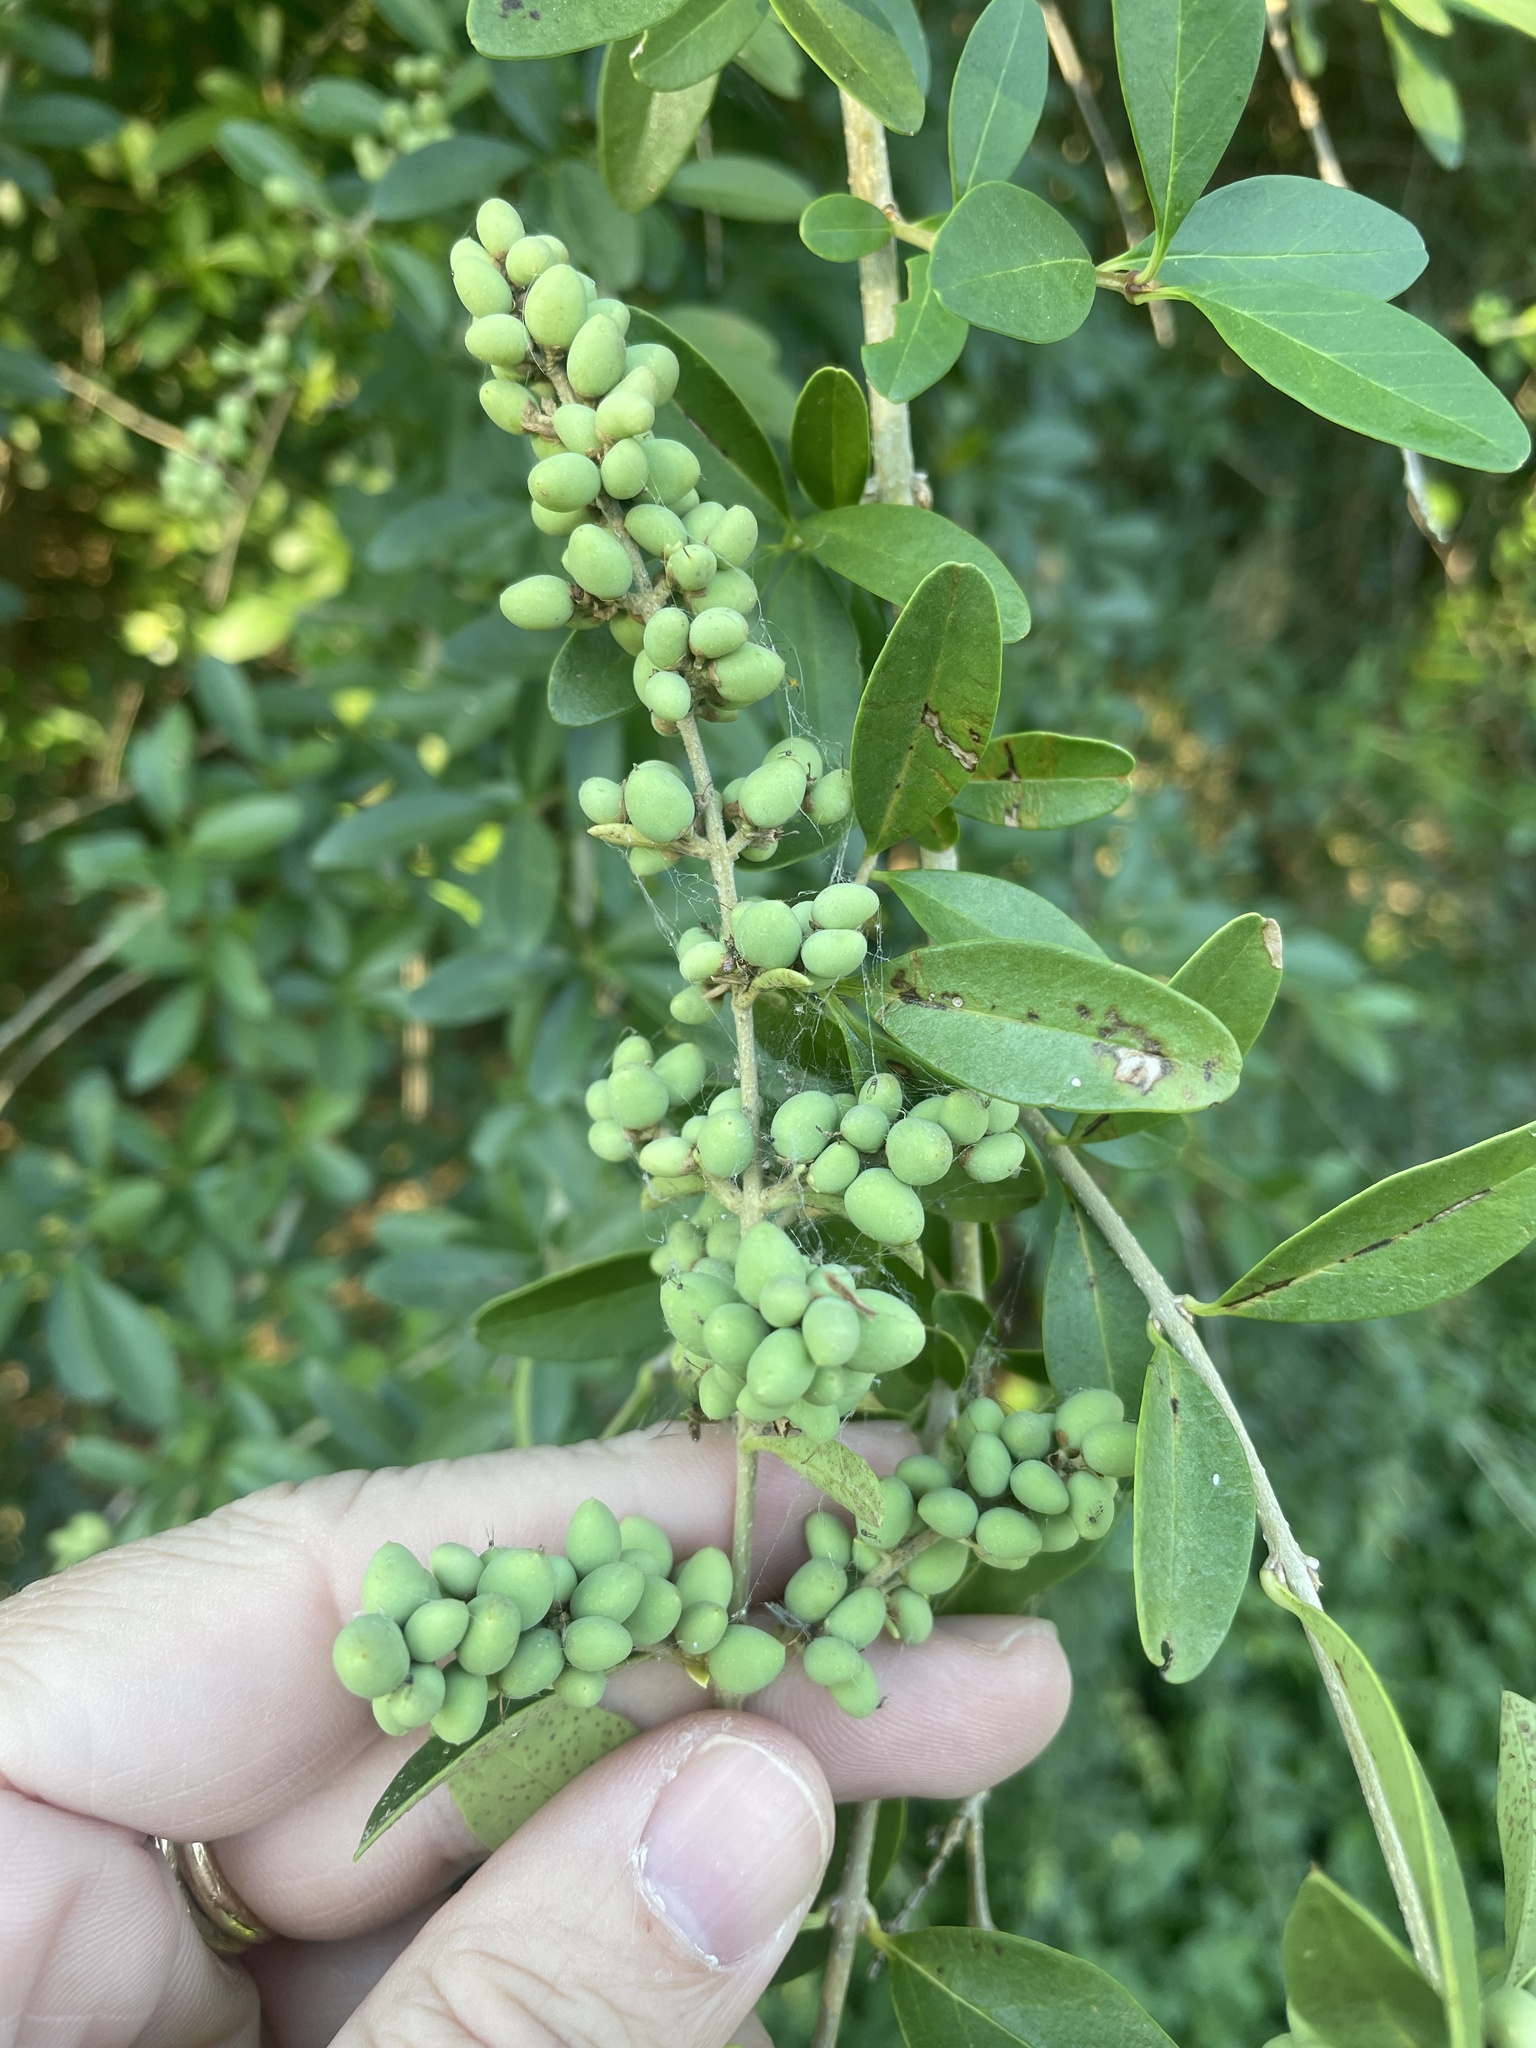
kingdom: Plantae
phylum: Tracheophyta
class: Magnoliopsida
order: Lamiales
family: Oleaceae
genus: Ligustrum
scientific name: Ligustrum quihoui
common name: Waxyleaf privet
